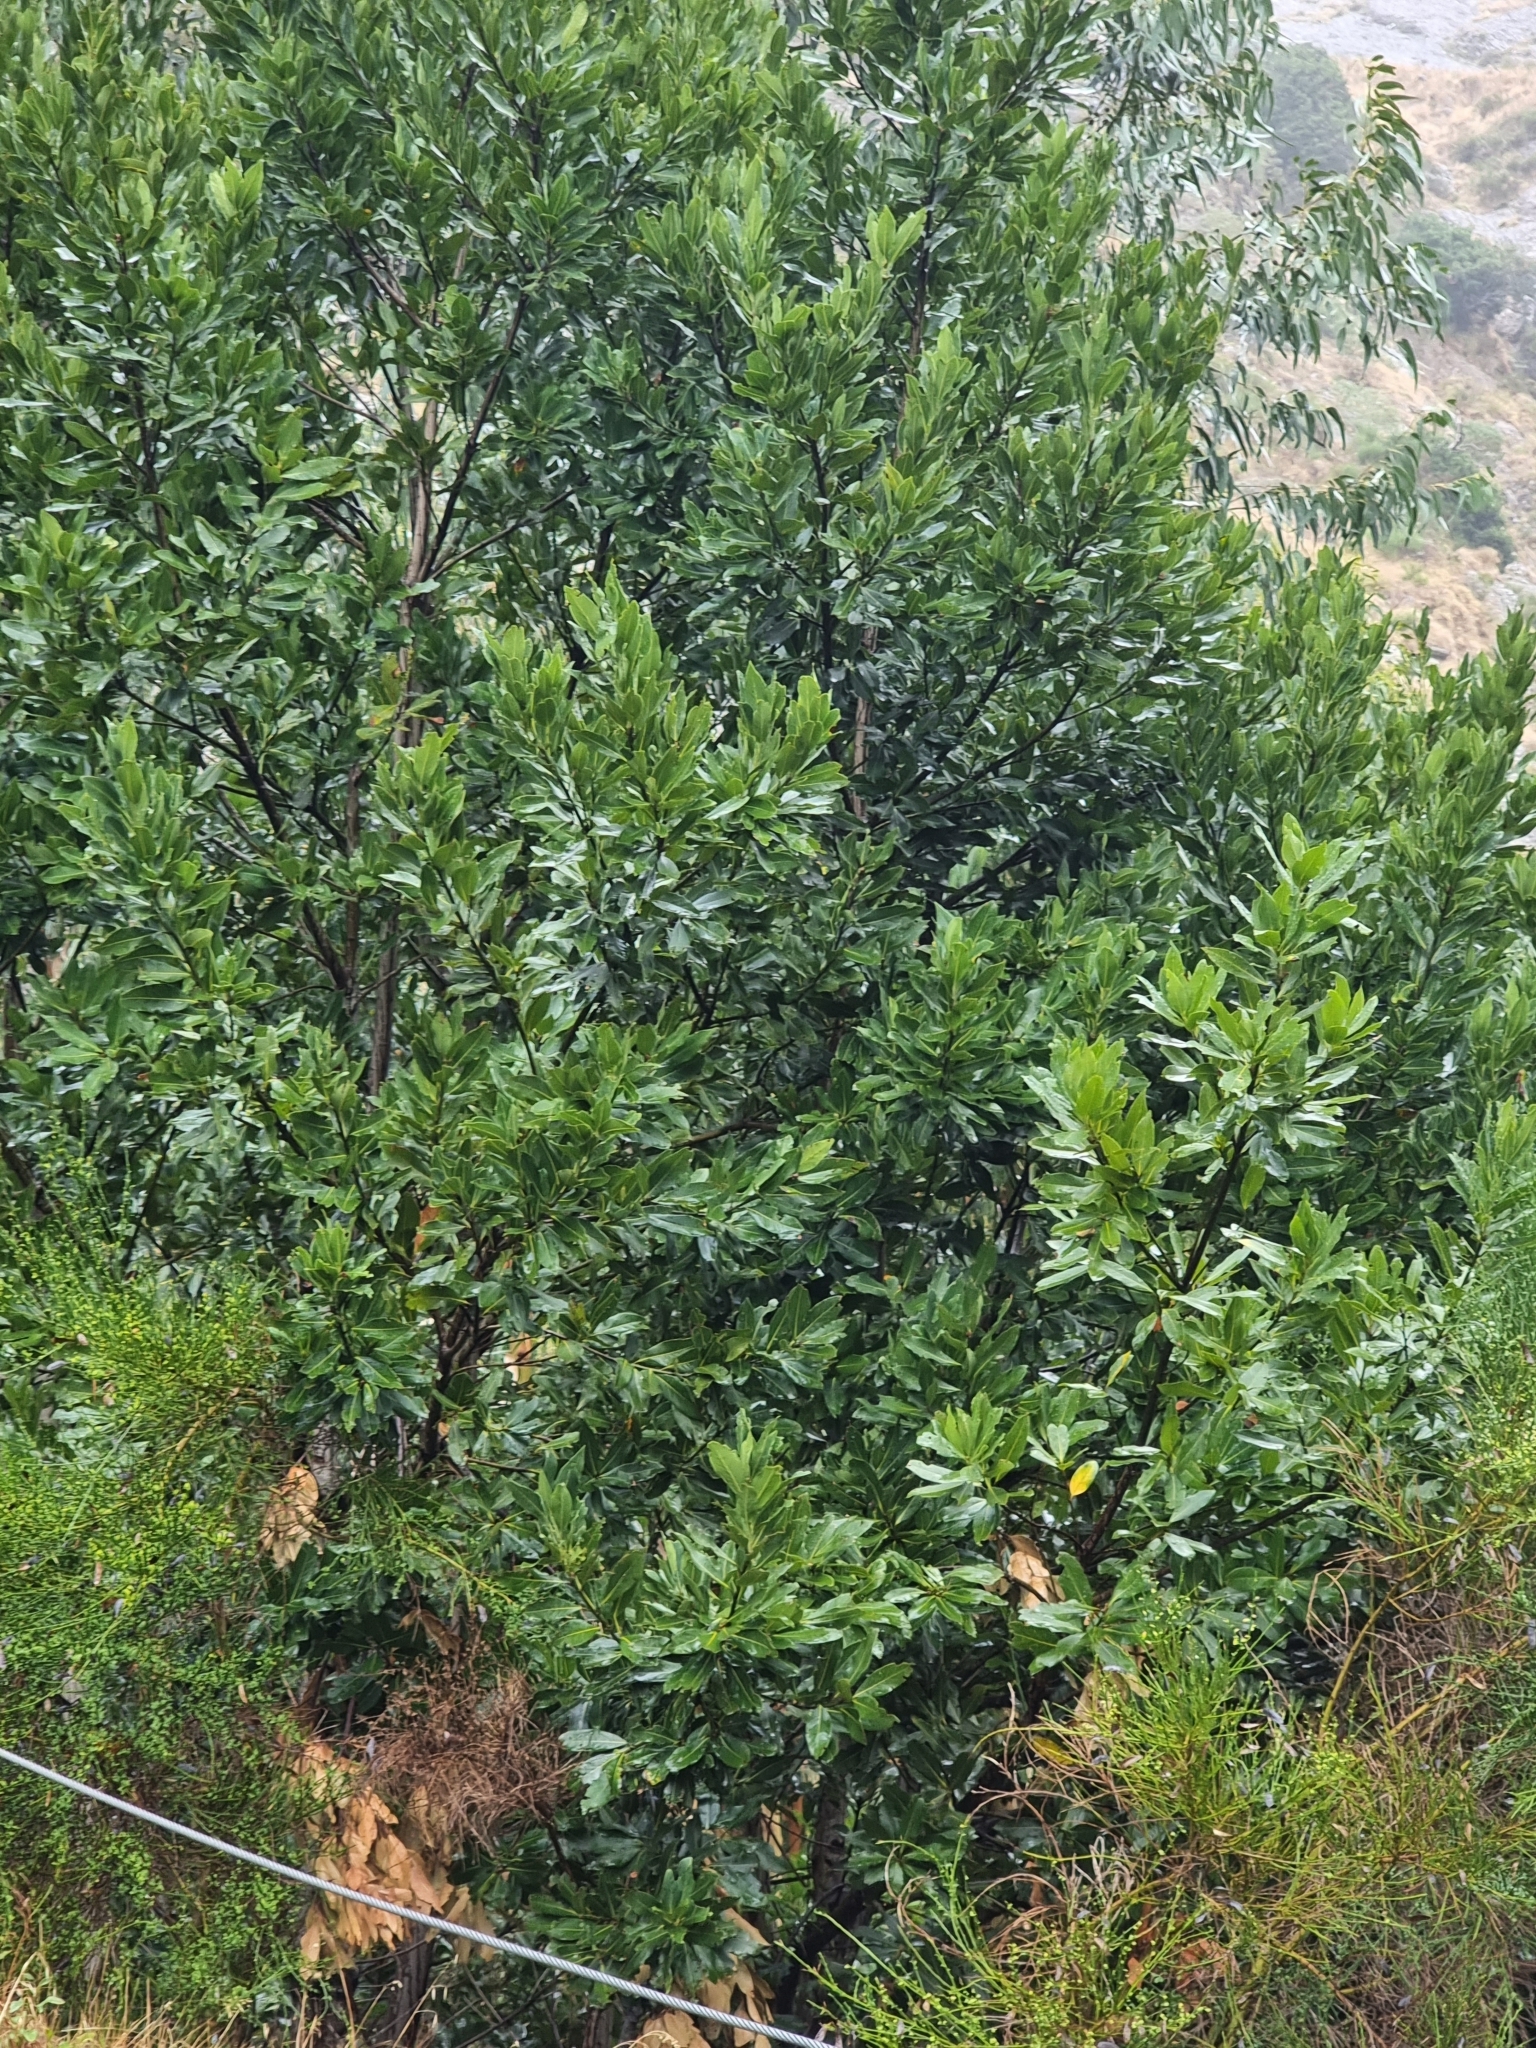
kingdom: Plantae
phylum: Tracheophyta
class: Magnoliopsida
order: Laurales
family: Lauraceae
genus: Laurus
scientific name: Laurus novocanariensis
